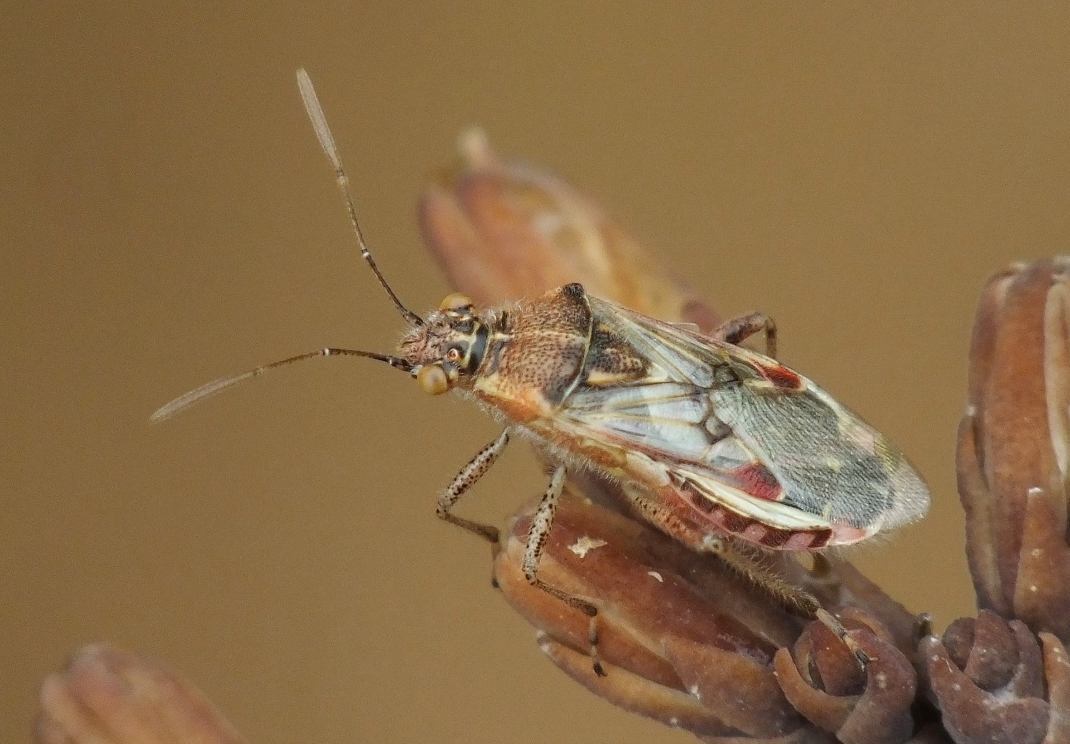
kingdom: Animalia
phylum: Arthropoda
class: Insecta
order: Hemiptera
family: Rhopalidae
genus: Liorhyssus
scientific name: Liorhyssus hyalinus
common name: Scentless plant bug
